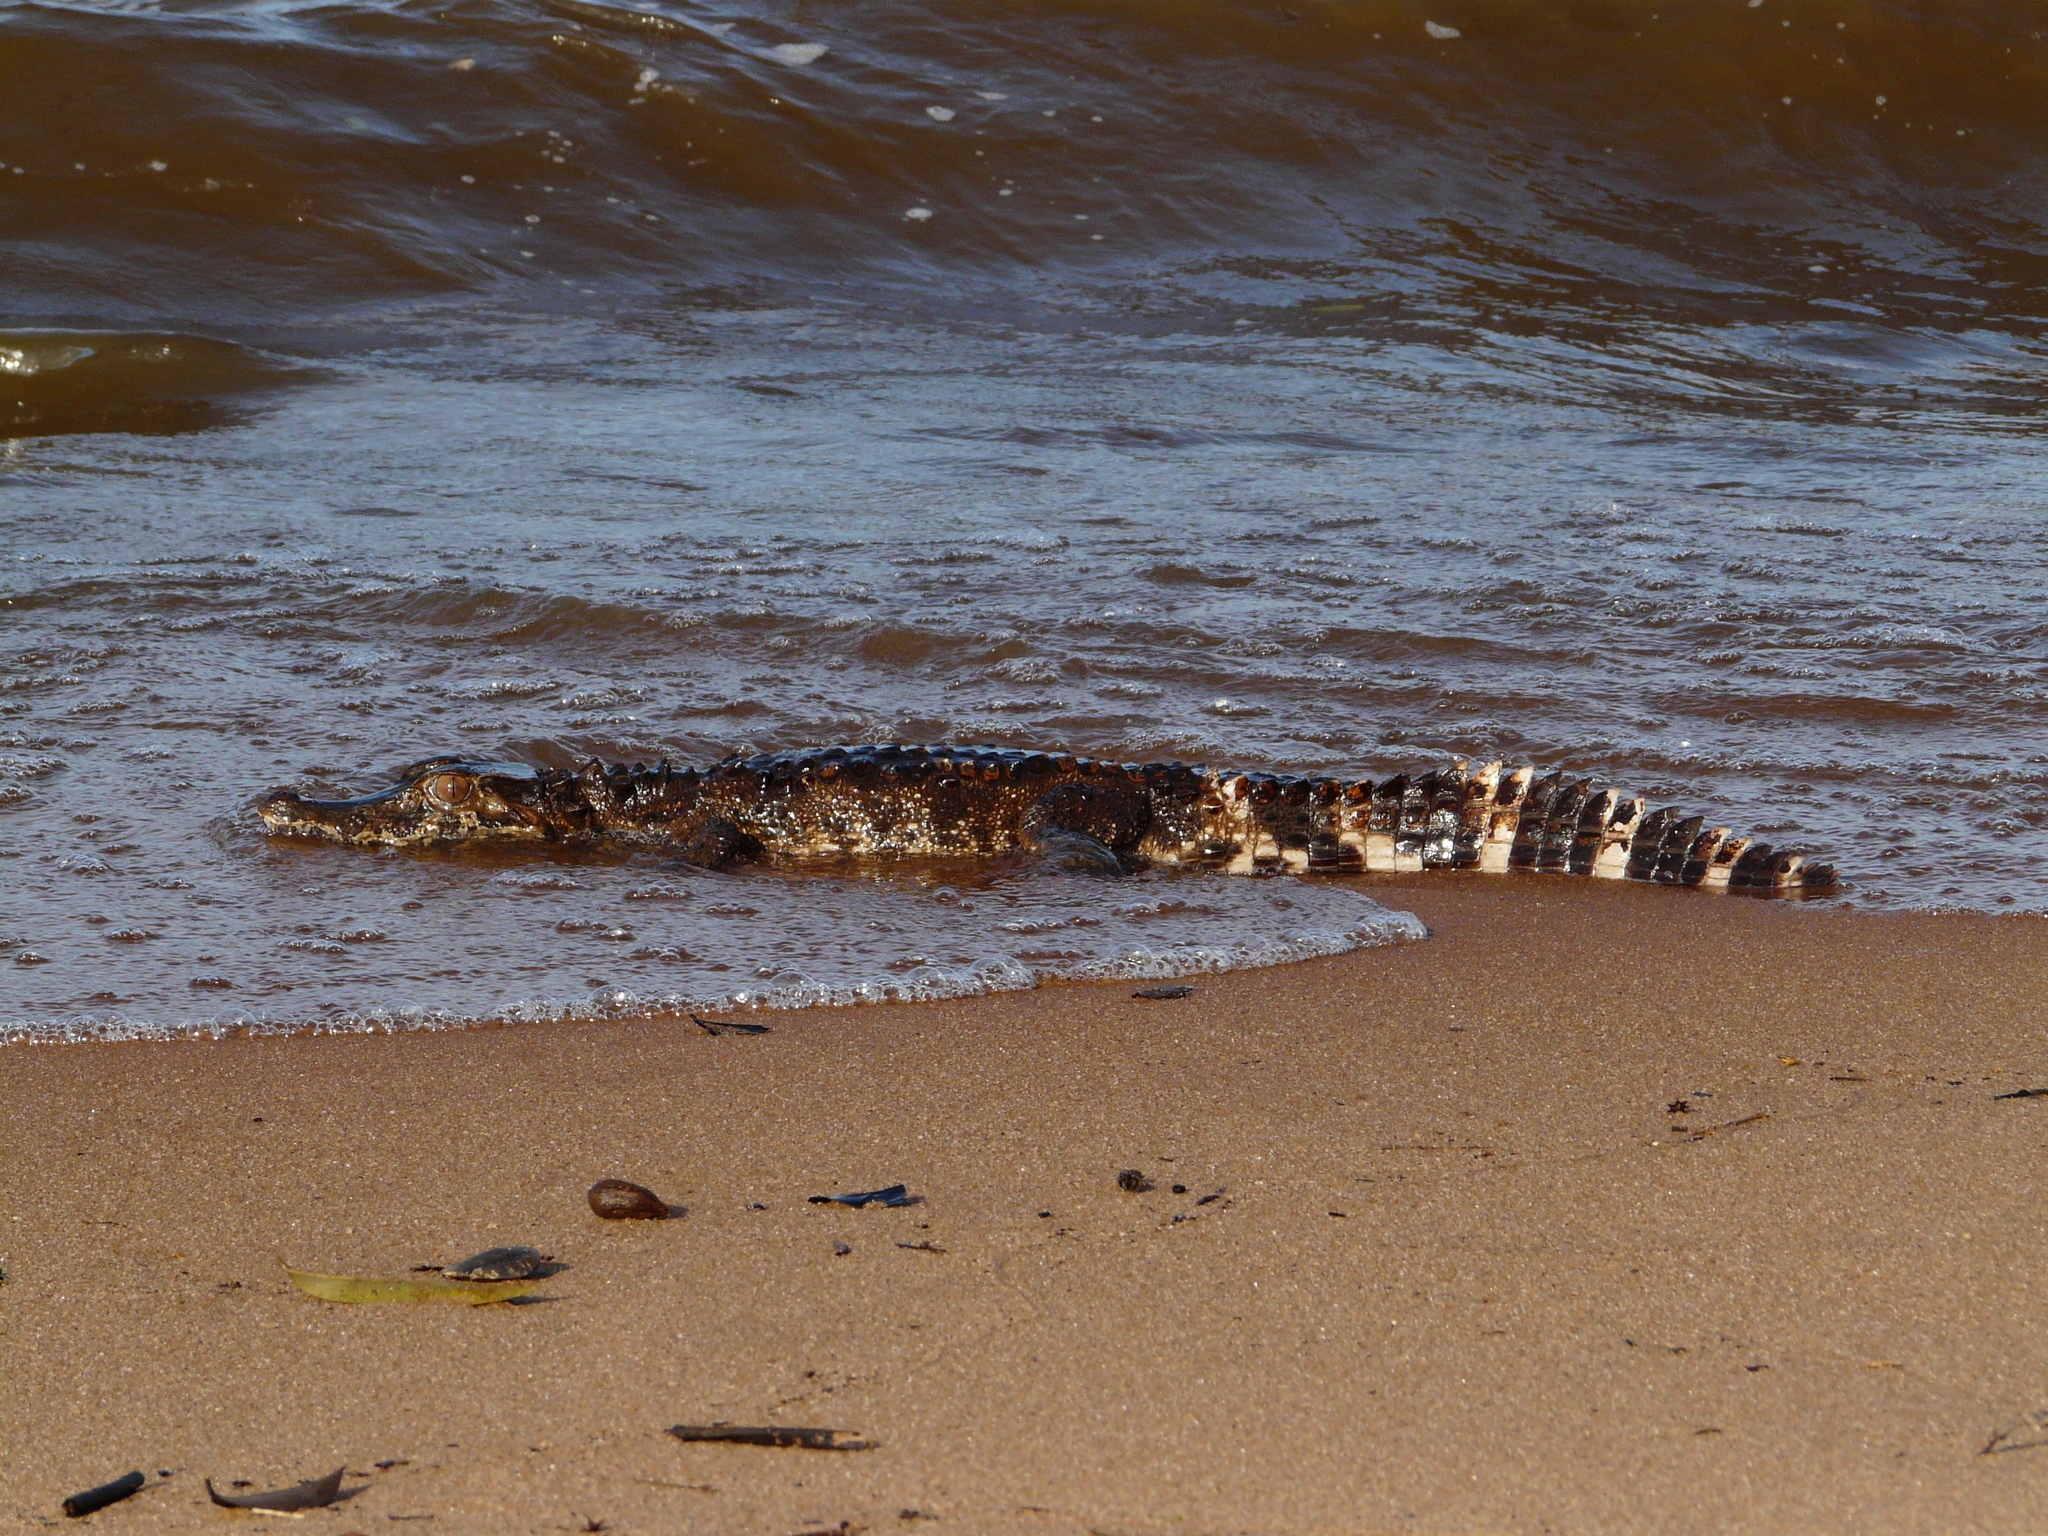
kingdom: Animalia
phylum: Chordata
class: Crocodylia
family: Alligatoridae
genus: Paleosuchus
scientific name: Paleosuchus trigonatus
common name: Schneider's smooth-fronted caiman
